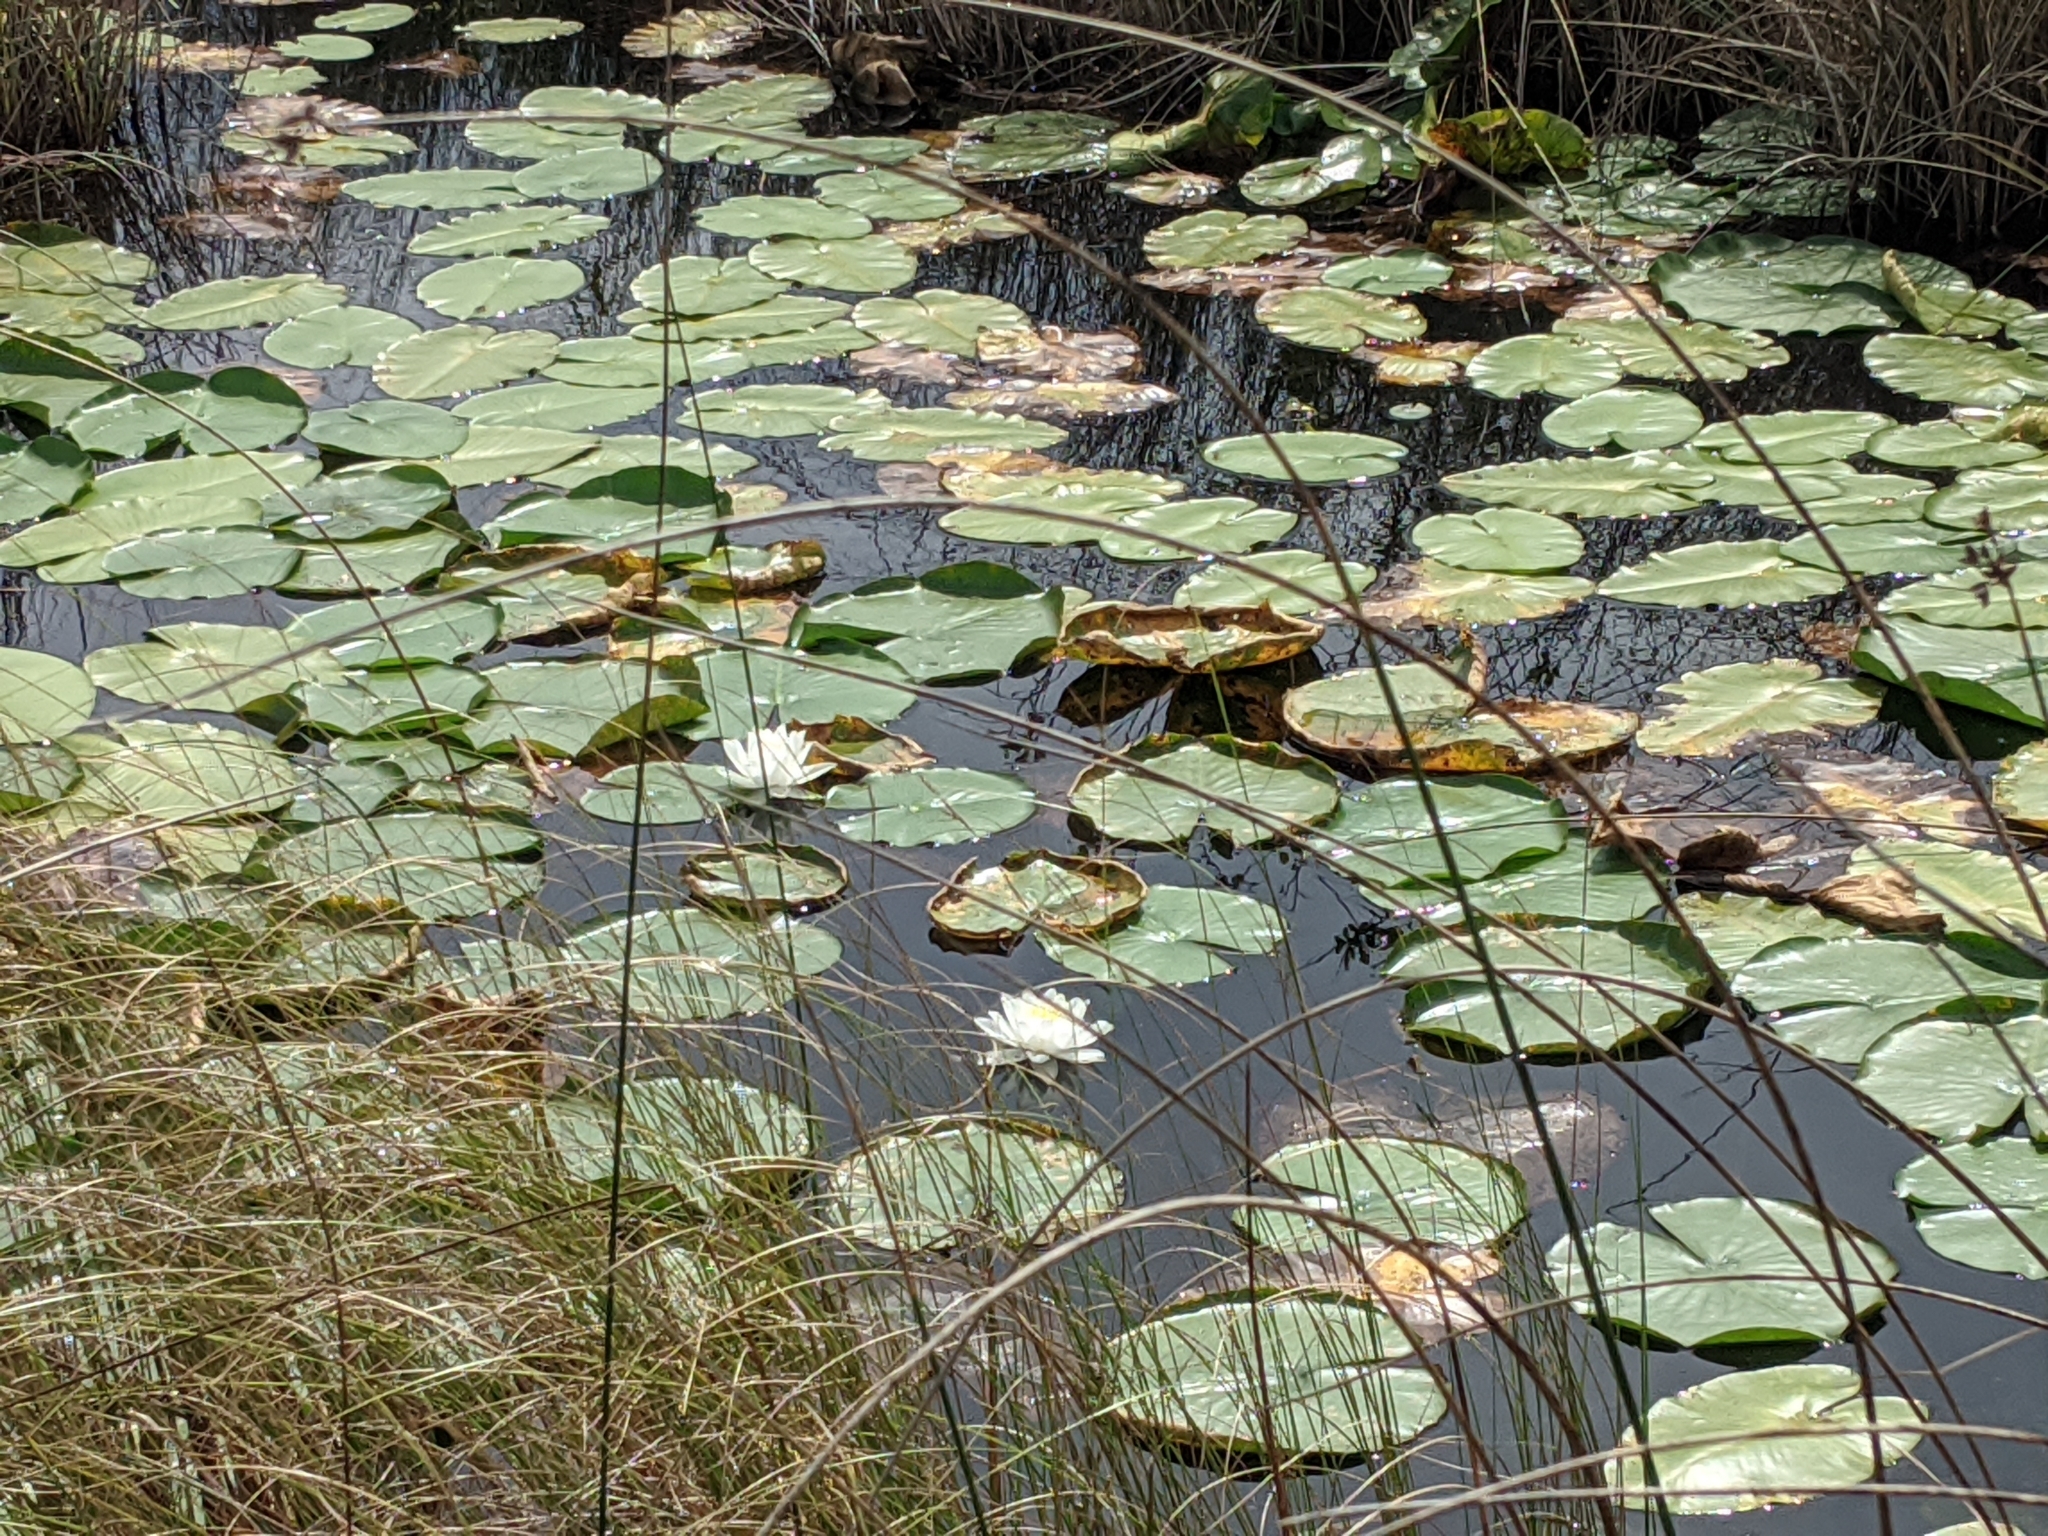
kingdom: Plantae
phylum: Tracheophyta
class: Magnoliopsida
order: Nymphaeales
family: Nymphaeaceae
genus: Nymphaea
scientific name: Nymphaea odorata
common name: Fragrant water-lily
